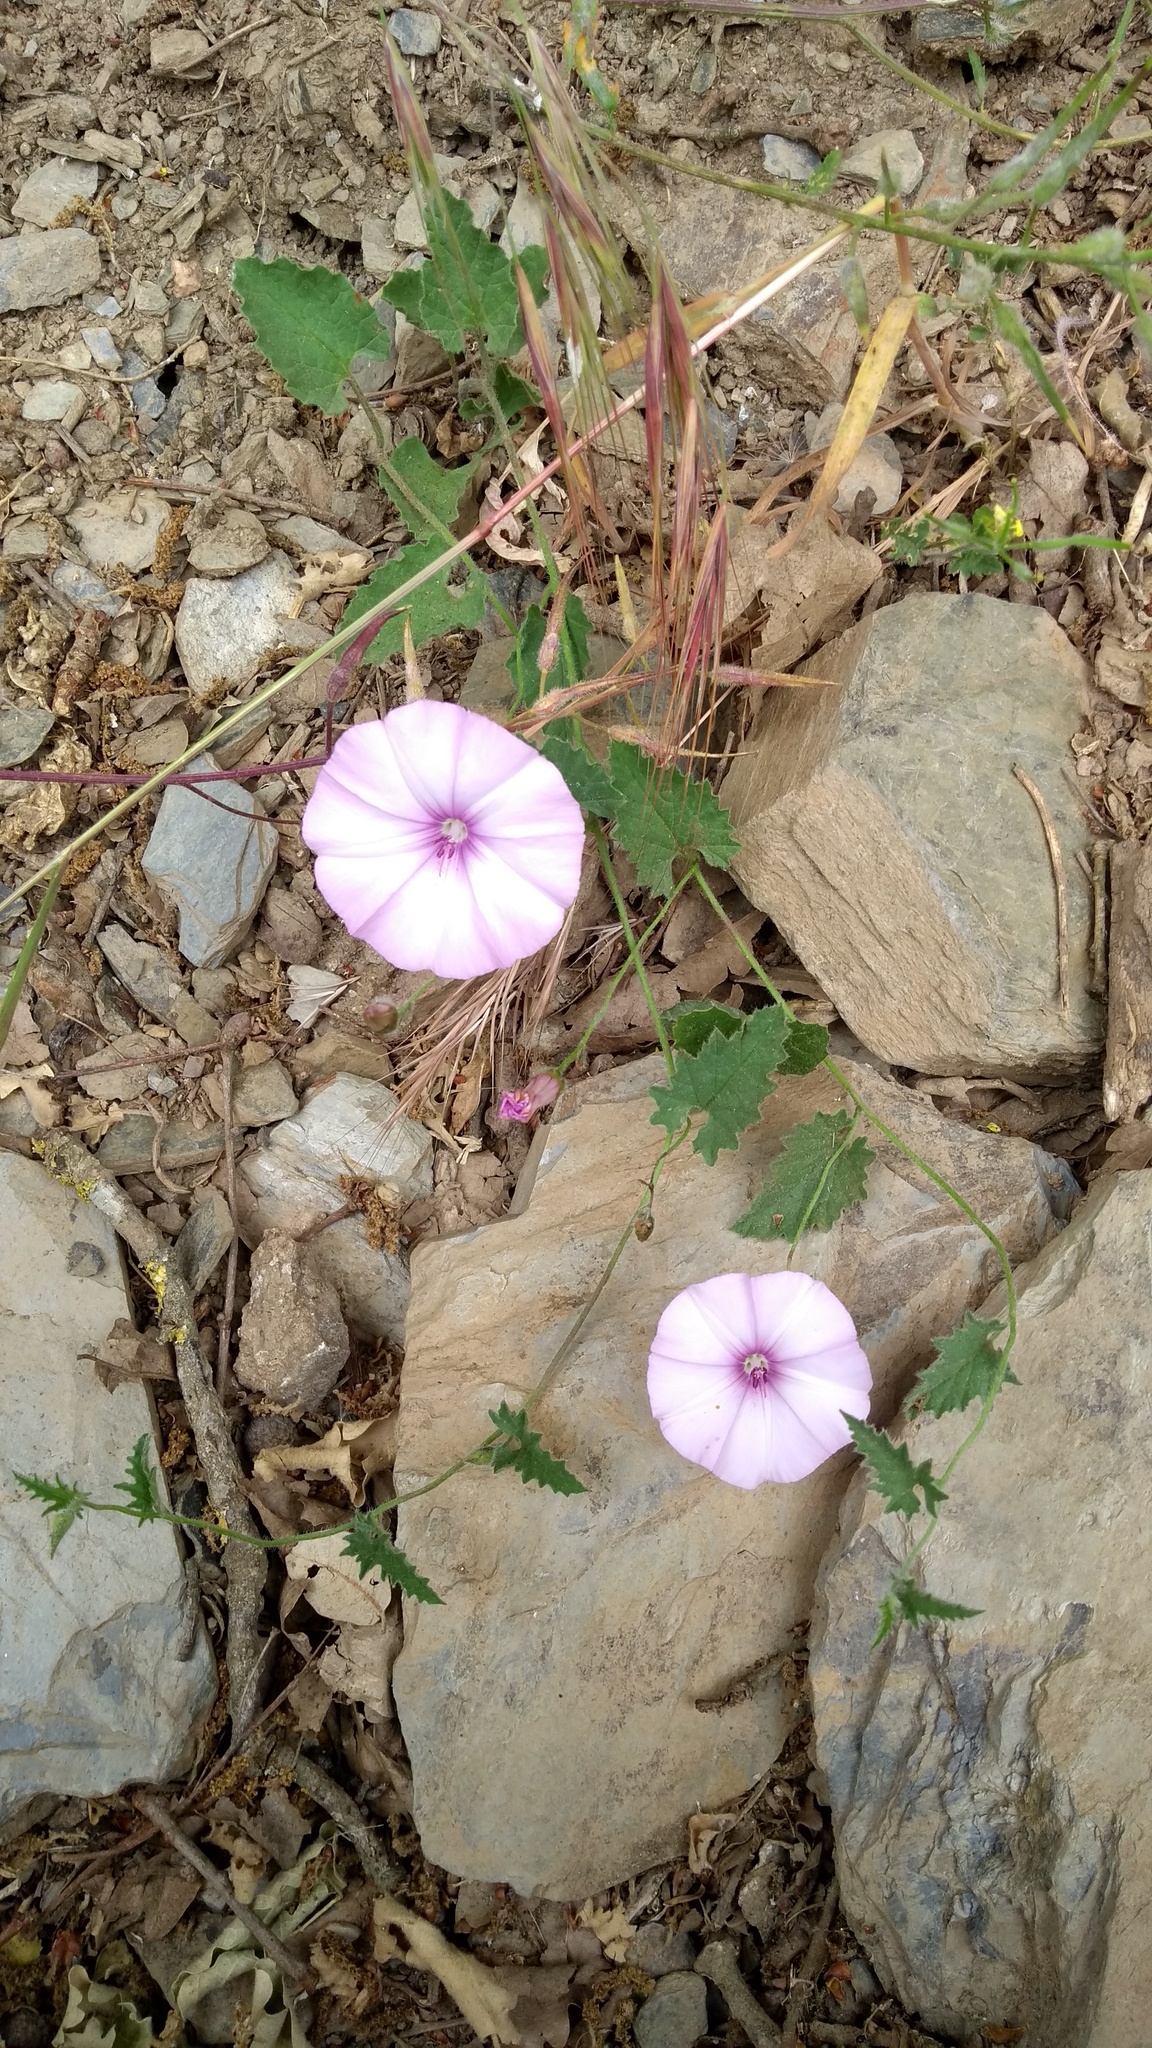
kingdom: Plantae
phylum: Tracheophyta
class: Magnoliopsida
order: Solanales
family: Convolvulaceae
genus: Convolvulus
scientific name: Convolvulus althaeoides
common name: Mallow bindweed
